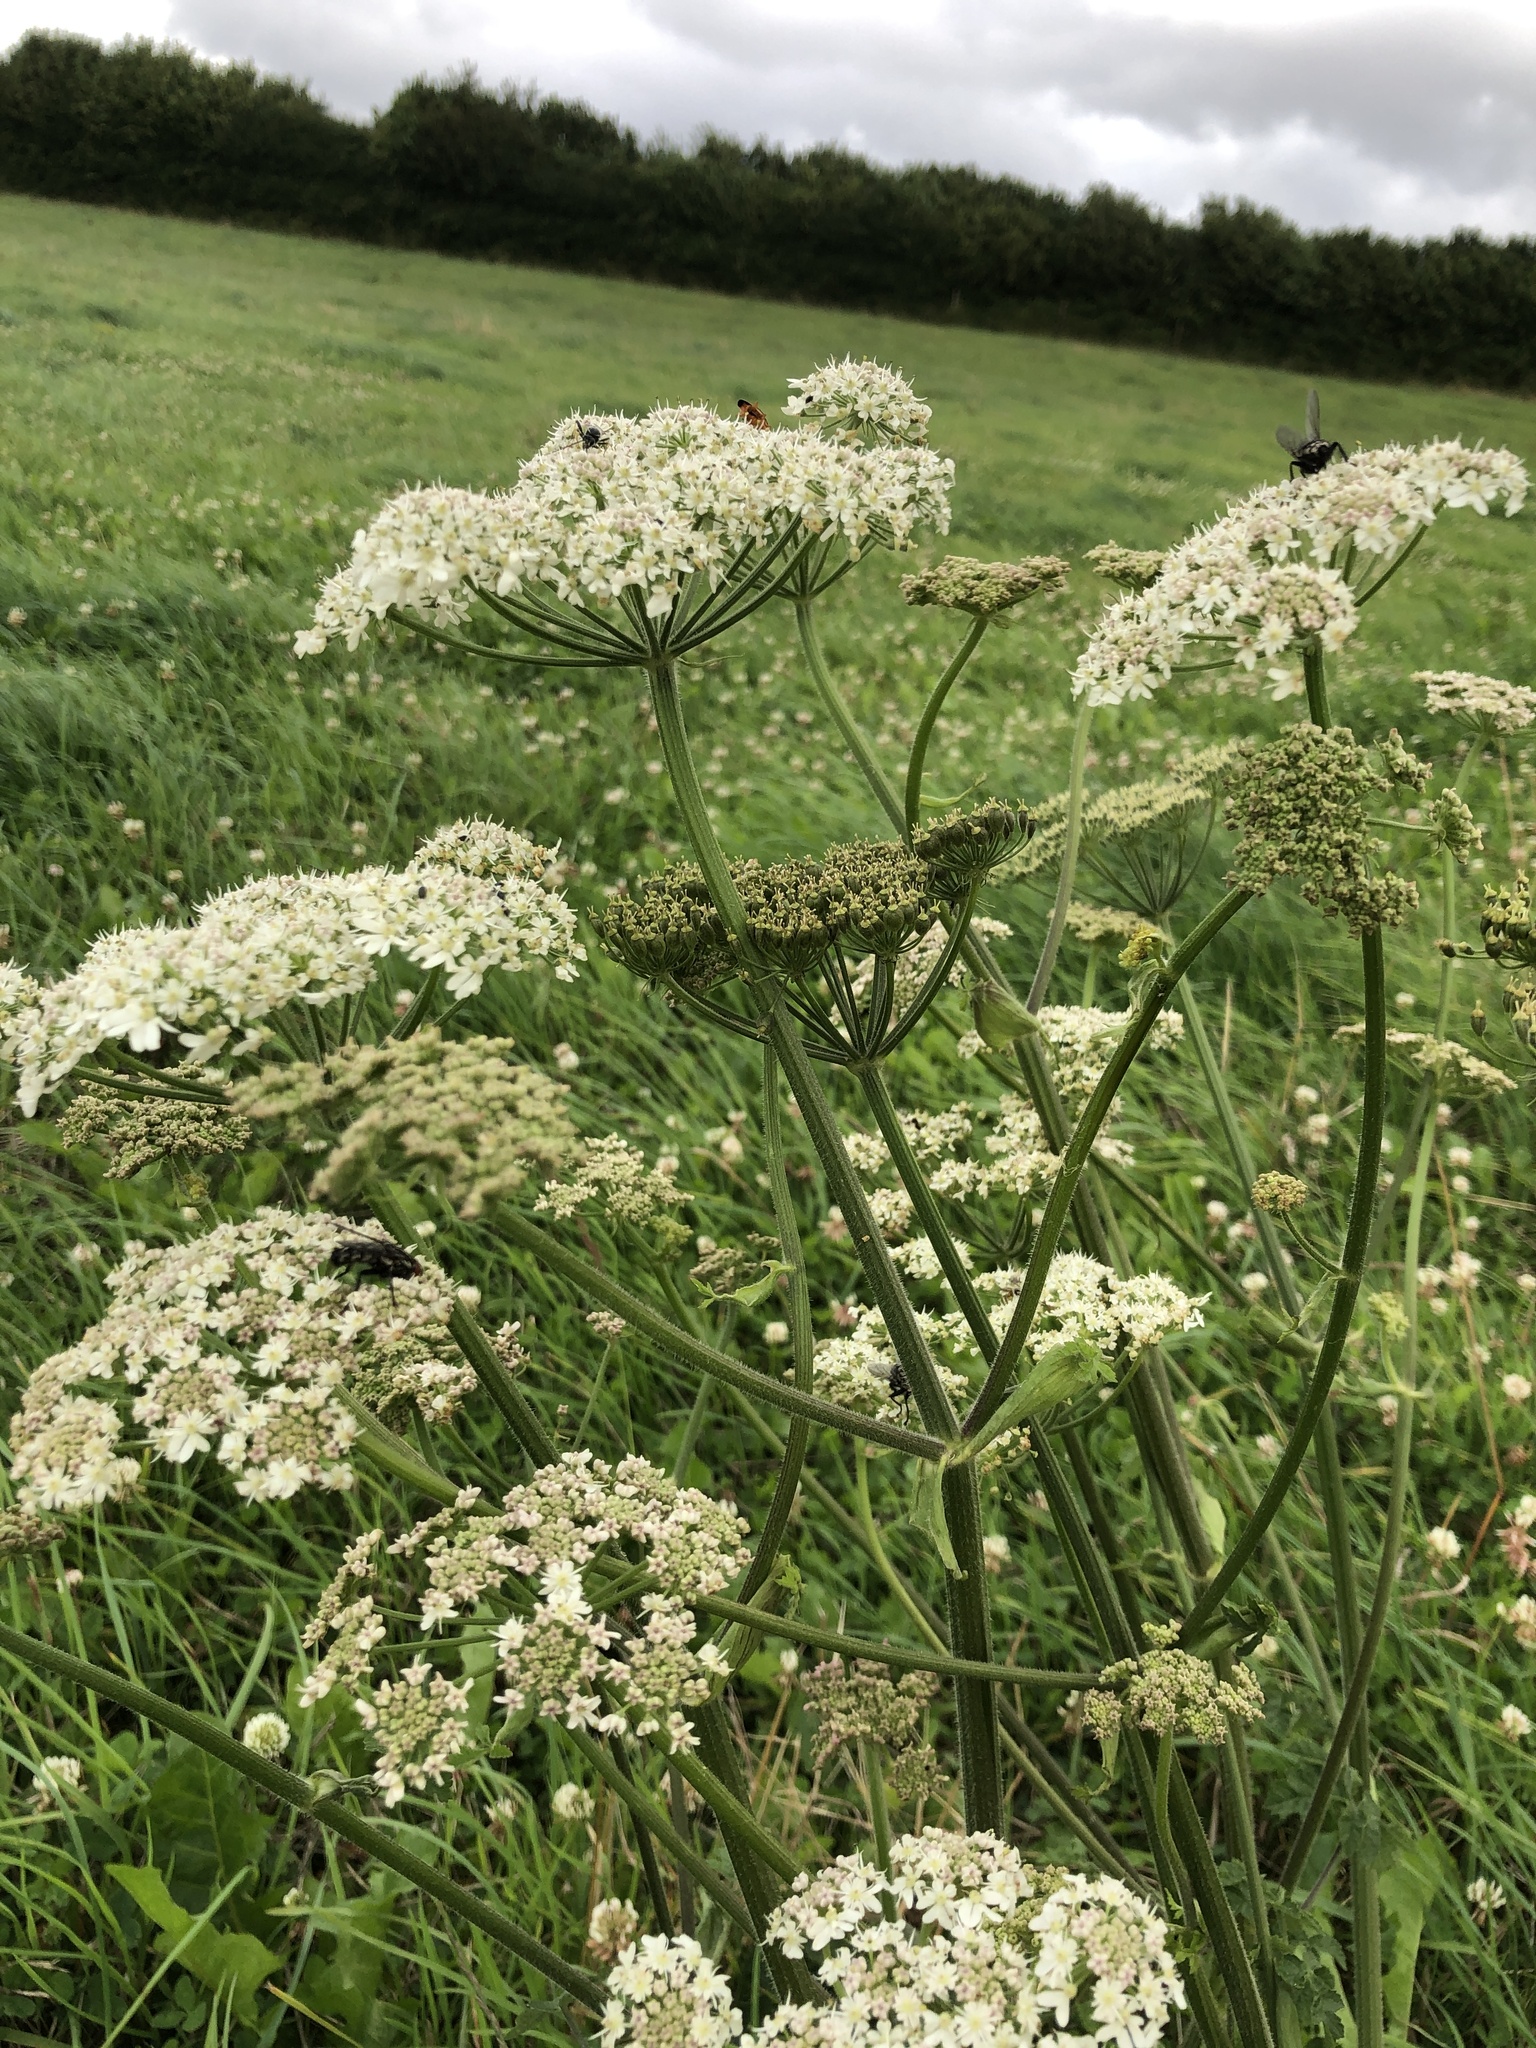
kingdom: Plantae
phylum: Tracheophyta
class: Magnoliopsida
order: Apiales
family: Apiaceae
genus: Heracleum
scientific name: Heracleum sphondylium
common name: Hogweed
